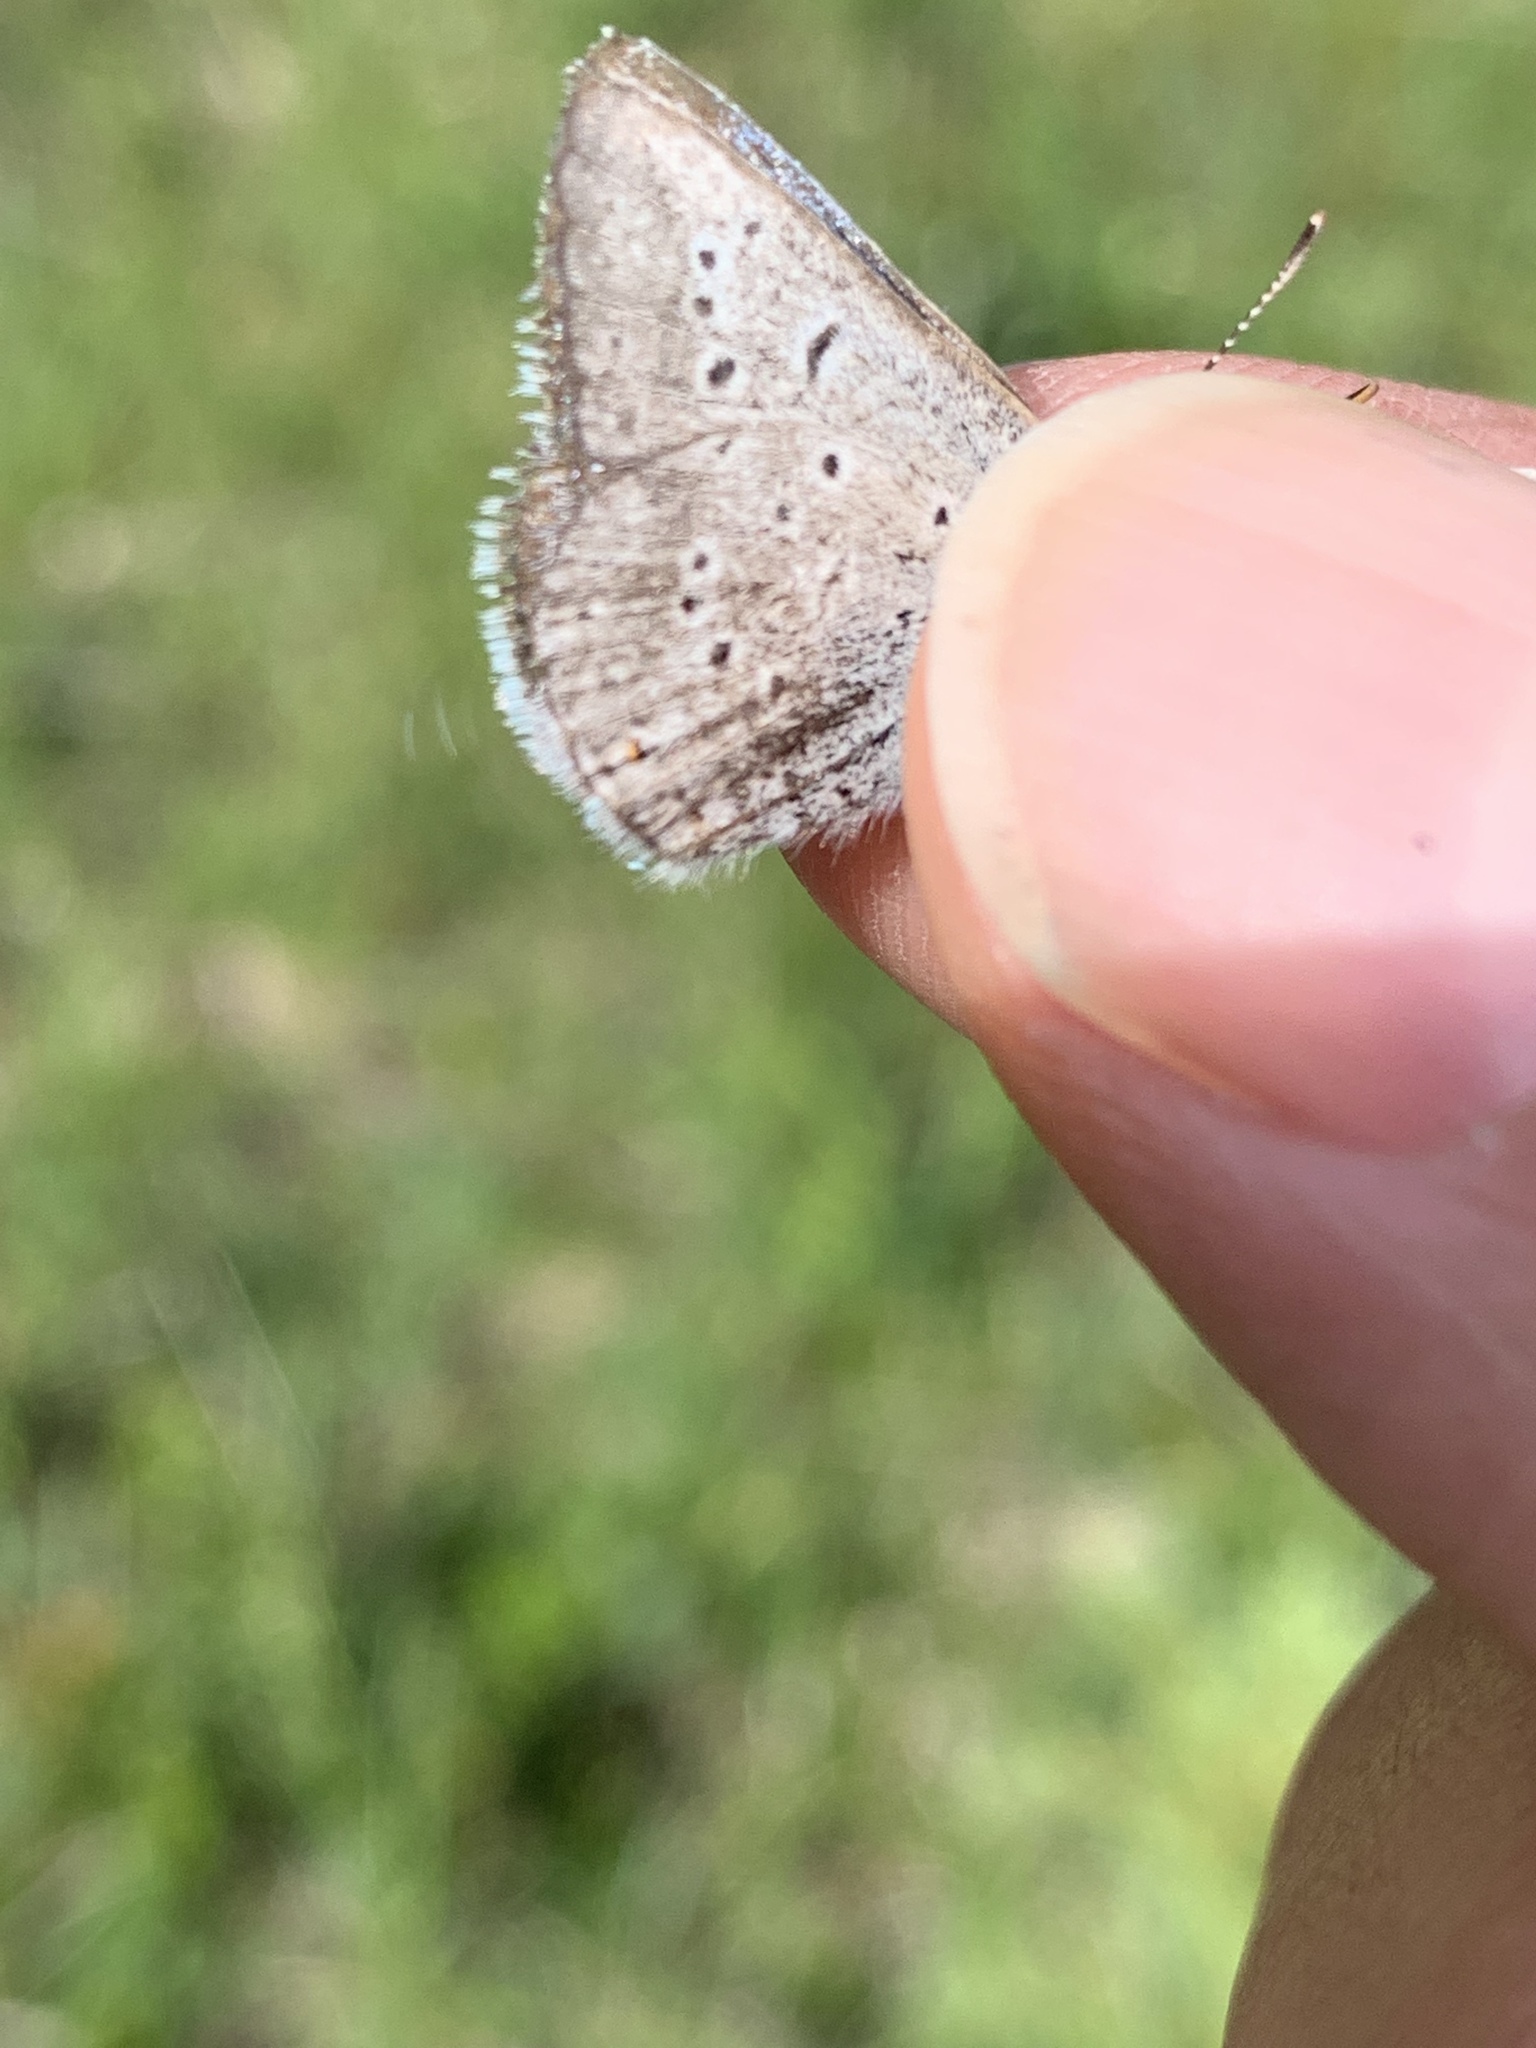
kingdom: Animalia
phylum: Arthropoda
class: Insecta
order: Lepidoptera
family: Lycaenidae
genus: Icaricia
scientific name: Icaricia saepiolus
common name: Greenish blue
